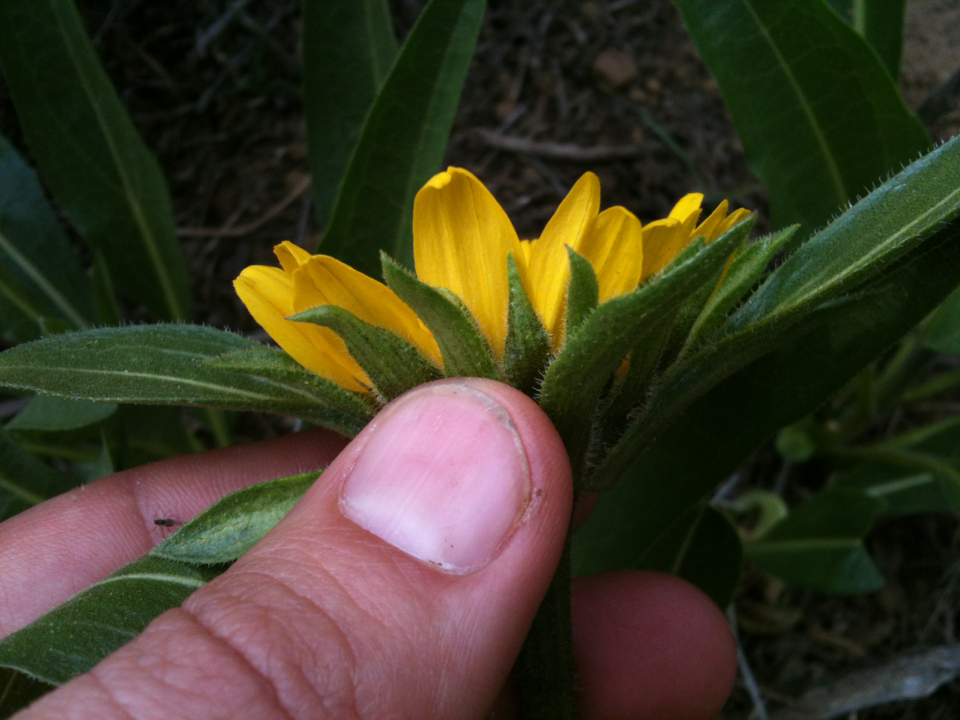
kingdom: Plantae
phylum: Tracheophyta
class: Magnoliopsida
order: Asterales
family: Asteraceae
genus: Helianthella
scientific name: Helianthella castanea
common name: Diablo helianthella
